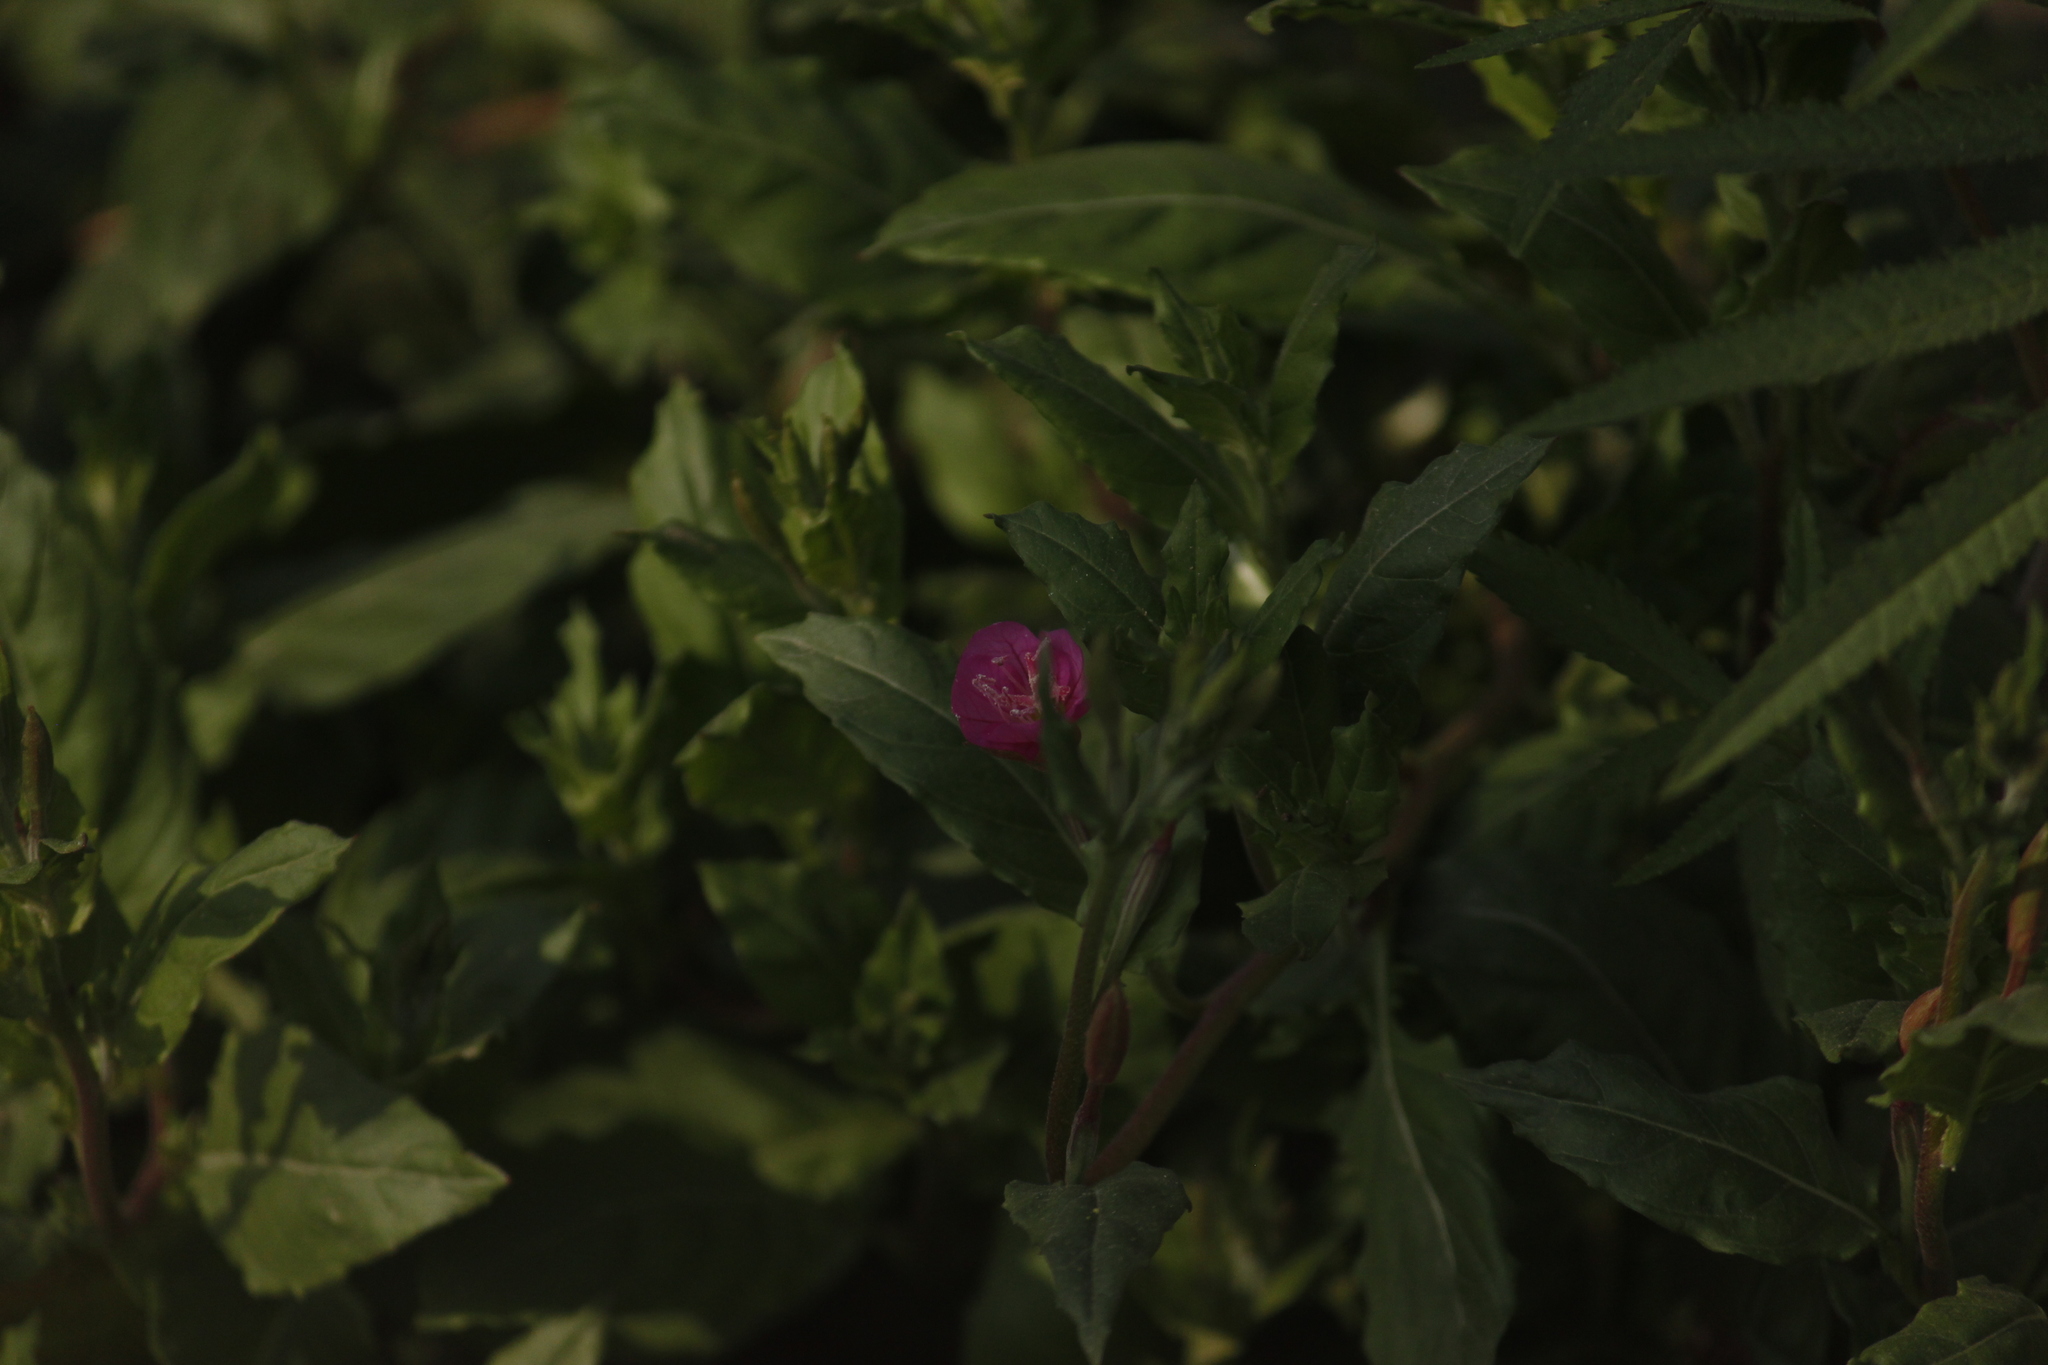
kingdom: Plantae
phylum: Tracheophyta
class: Magnoliopsida
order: Myrtales
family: Onagraceae
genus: Oenothera
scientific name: Oenothera rosea
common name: Rosy evening-primrose
